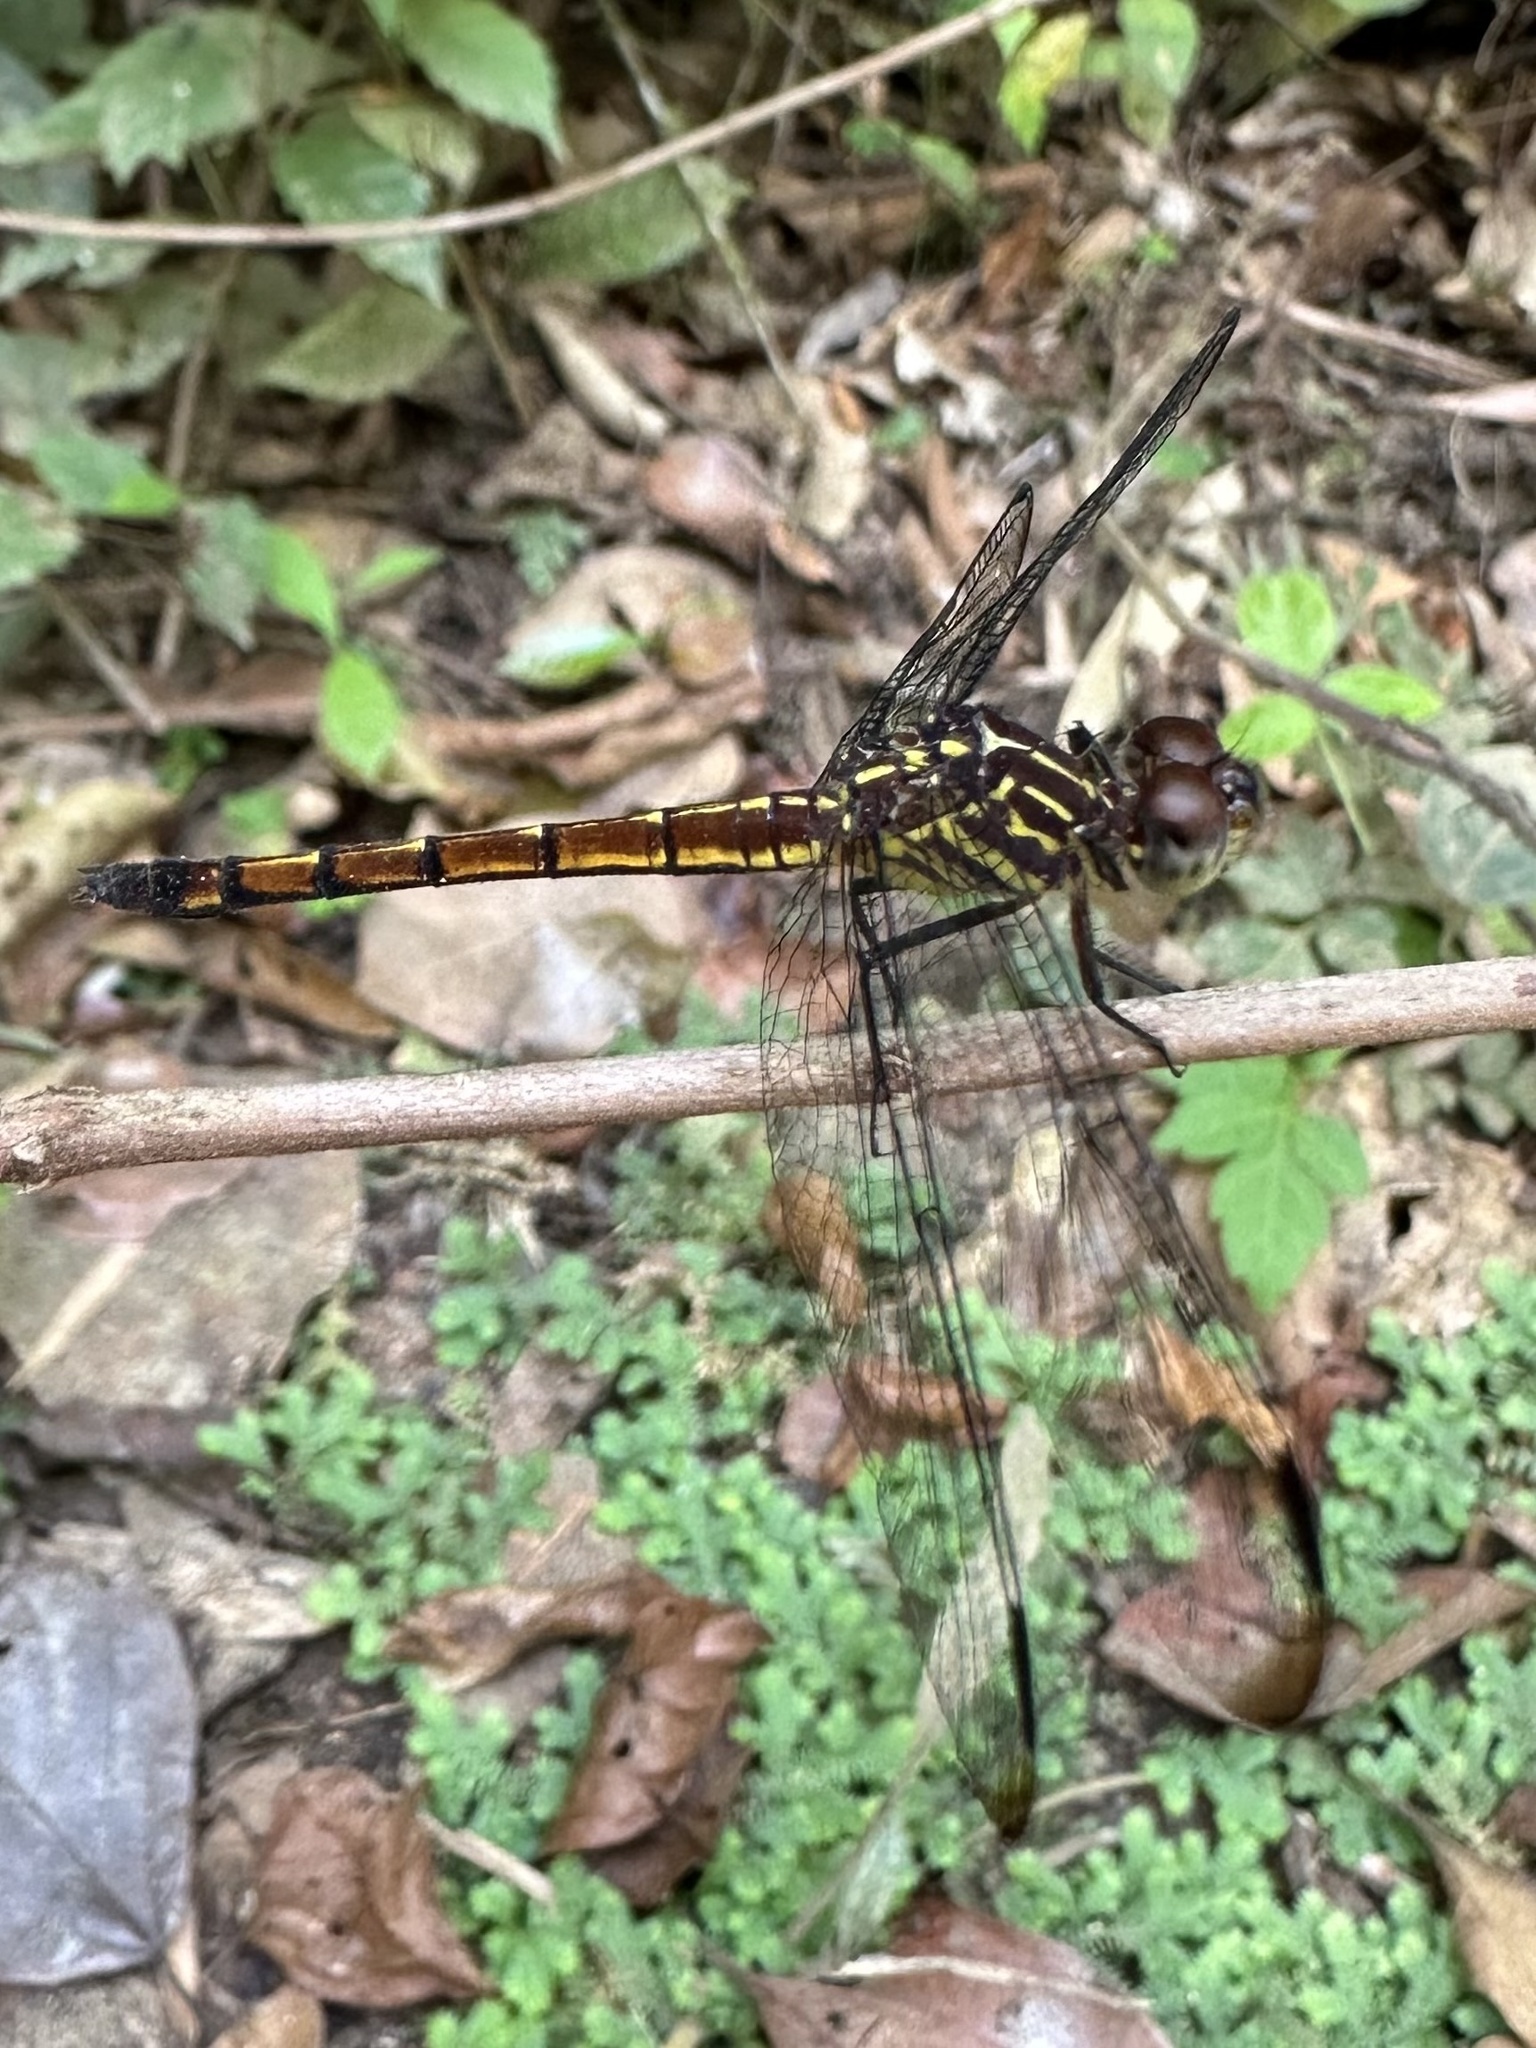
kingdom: Animalia
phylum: Arthropoda
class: Insecta
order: Odonata
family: Libellulidae
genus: Cannaphila
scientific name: Cannaphila insularis
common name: Gray-waisted skimmer
